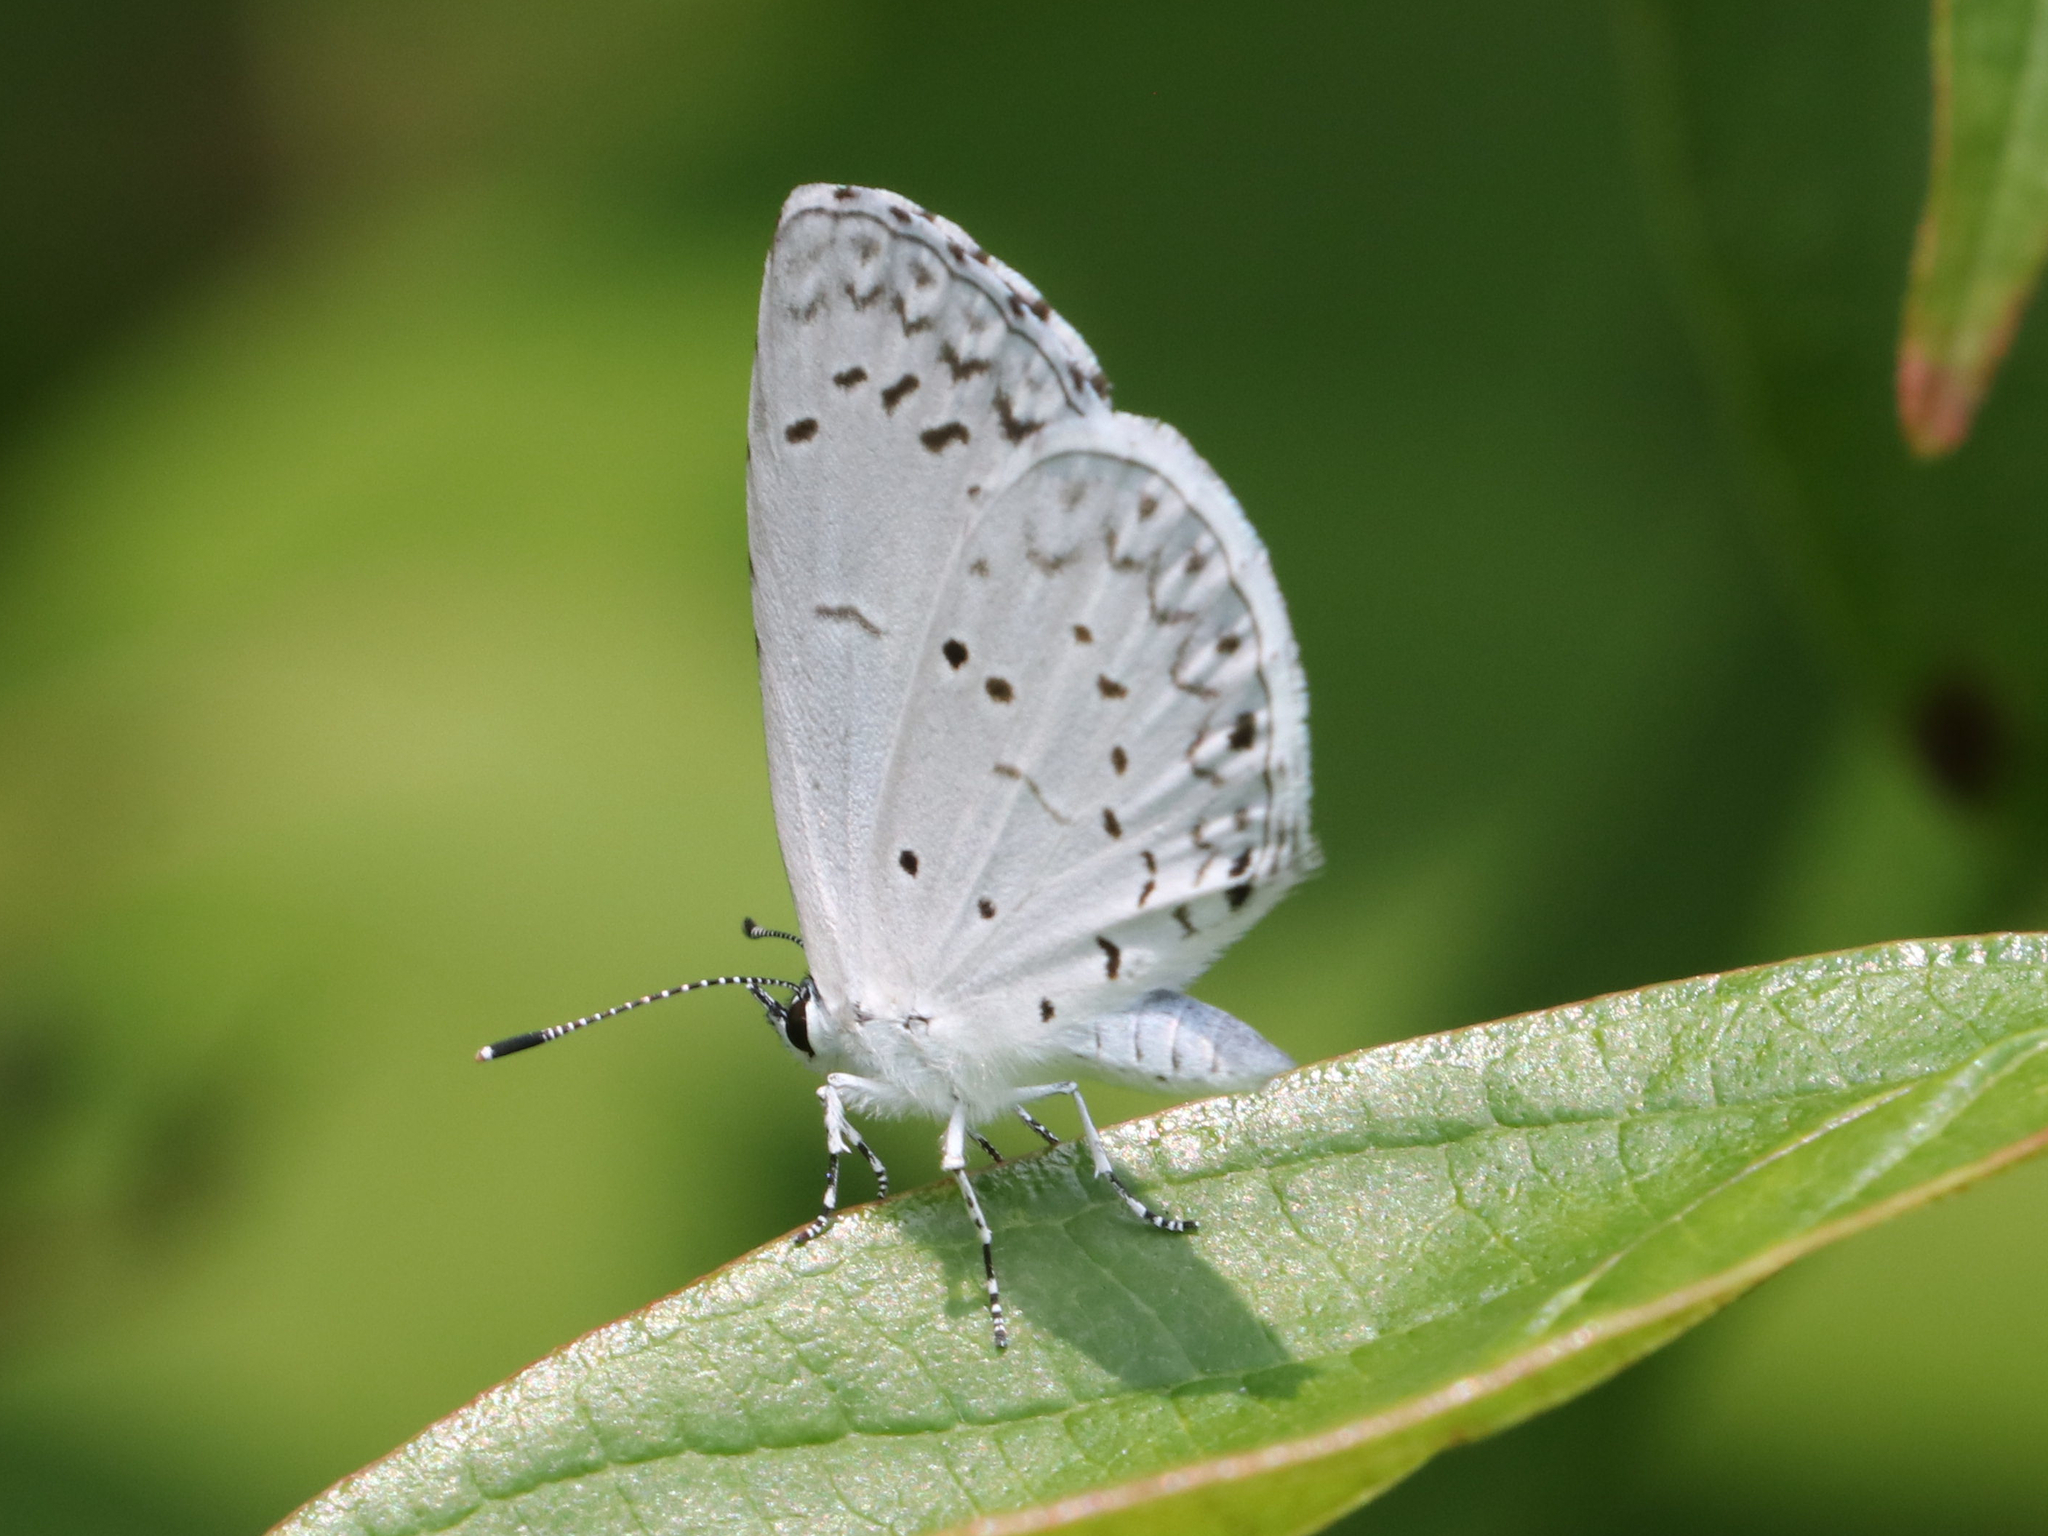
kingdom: Animalia
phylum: Arthropoda
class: Insecta
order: Lepidoptera
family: Lycaenidae
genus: Cyaniris
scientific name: Cyaniris neglecta
